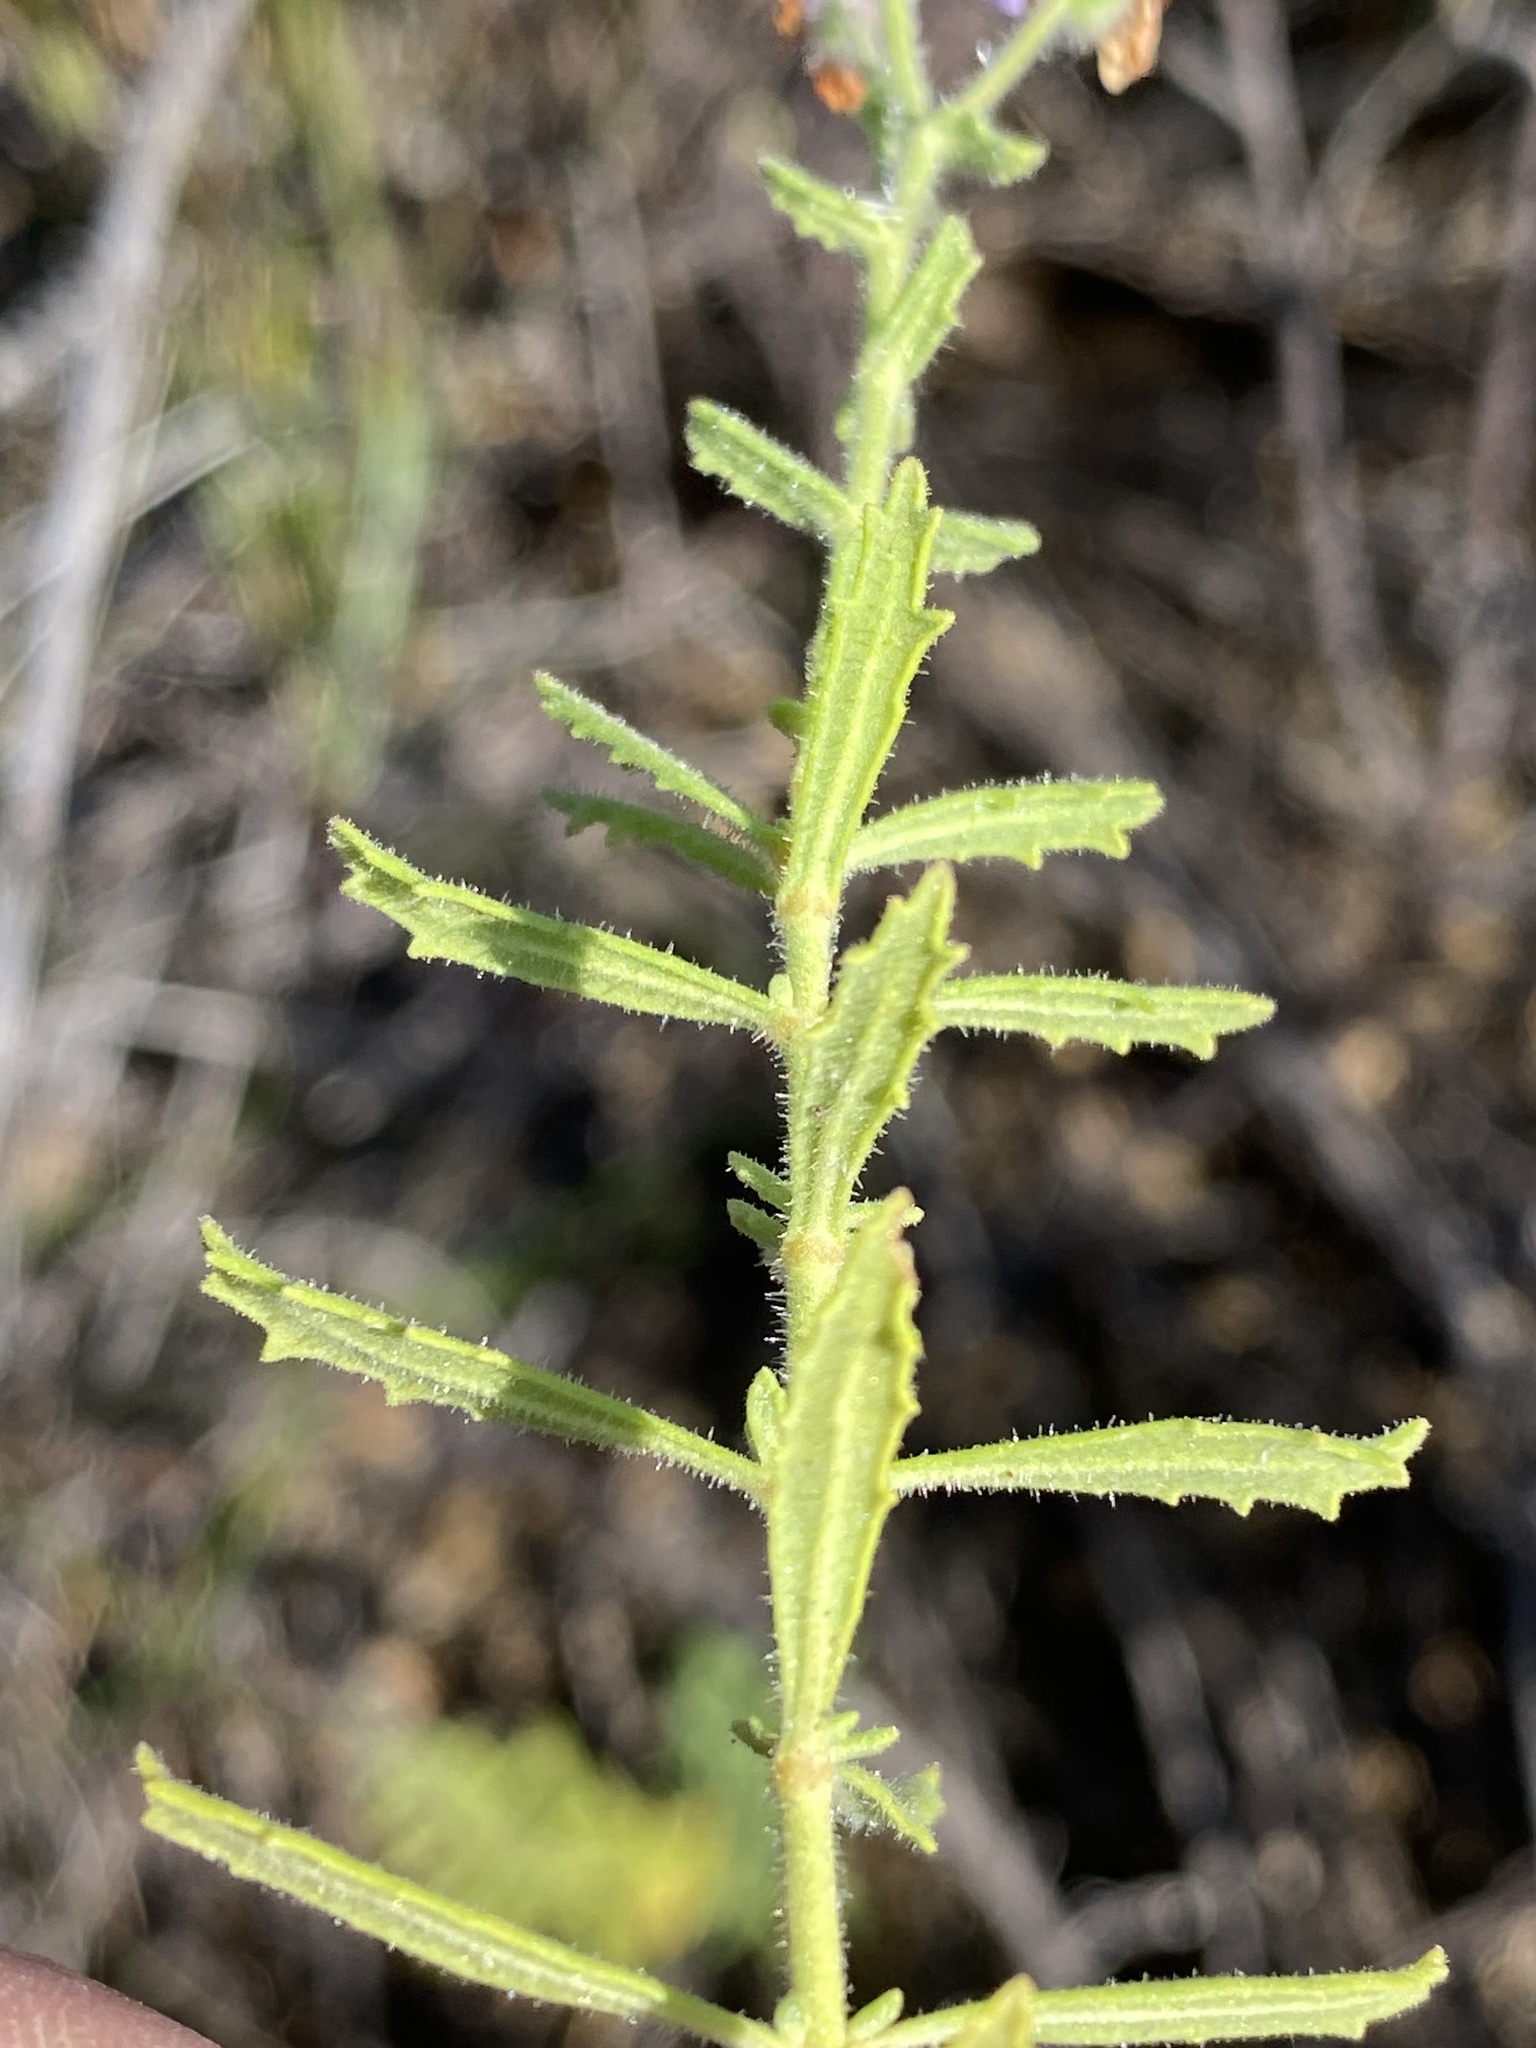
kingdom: Plantae
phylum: Tracheophyta
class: Magnoliopsida
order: Lamiales
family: Scrophulariaceae
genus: Chaenostoma
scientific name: Chaenostoma caeruleum
